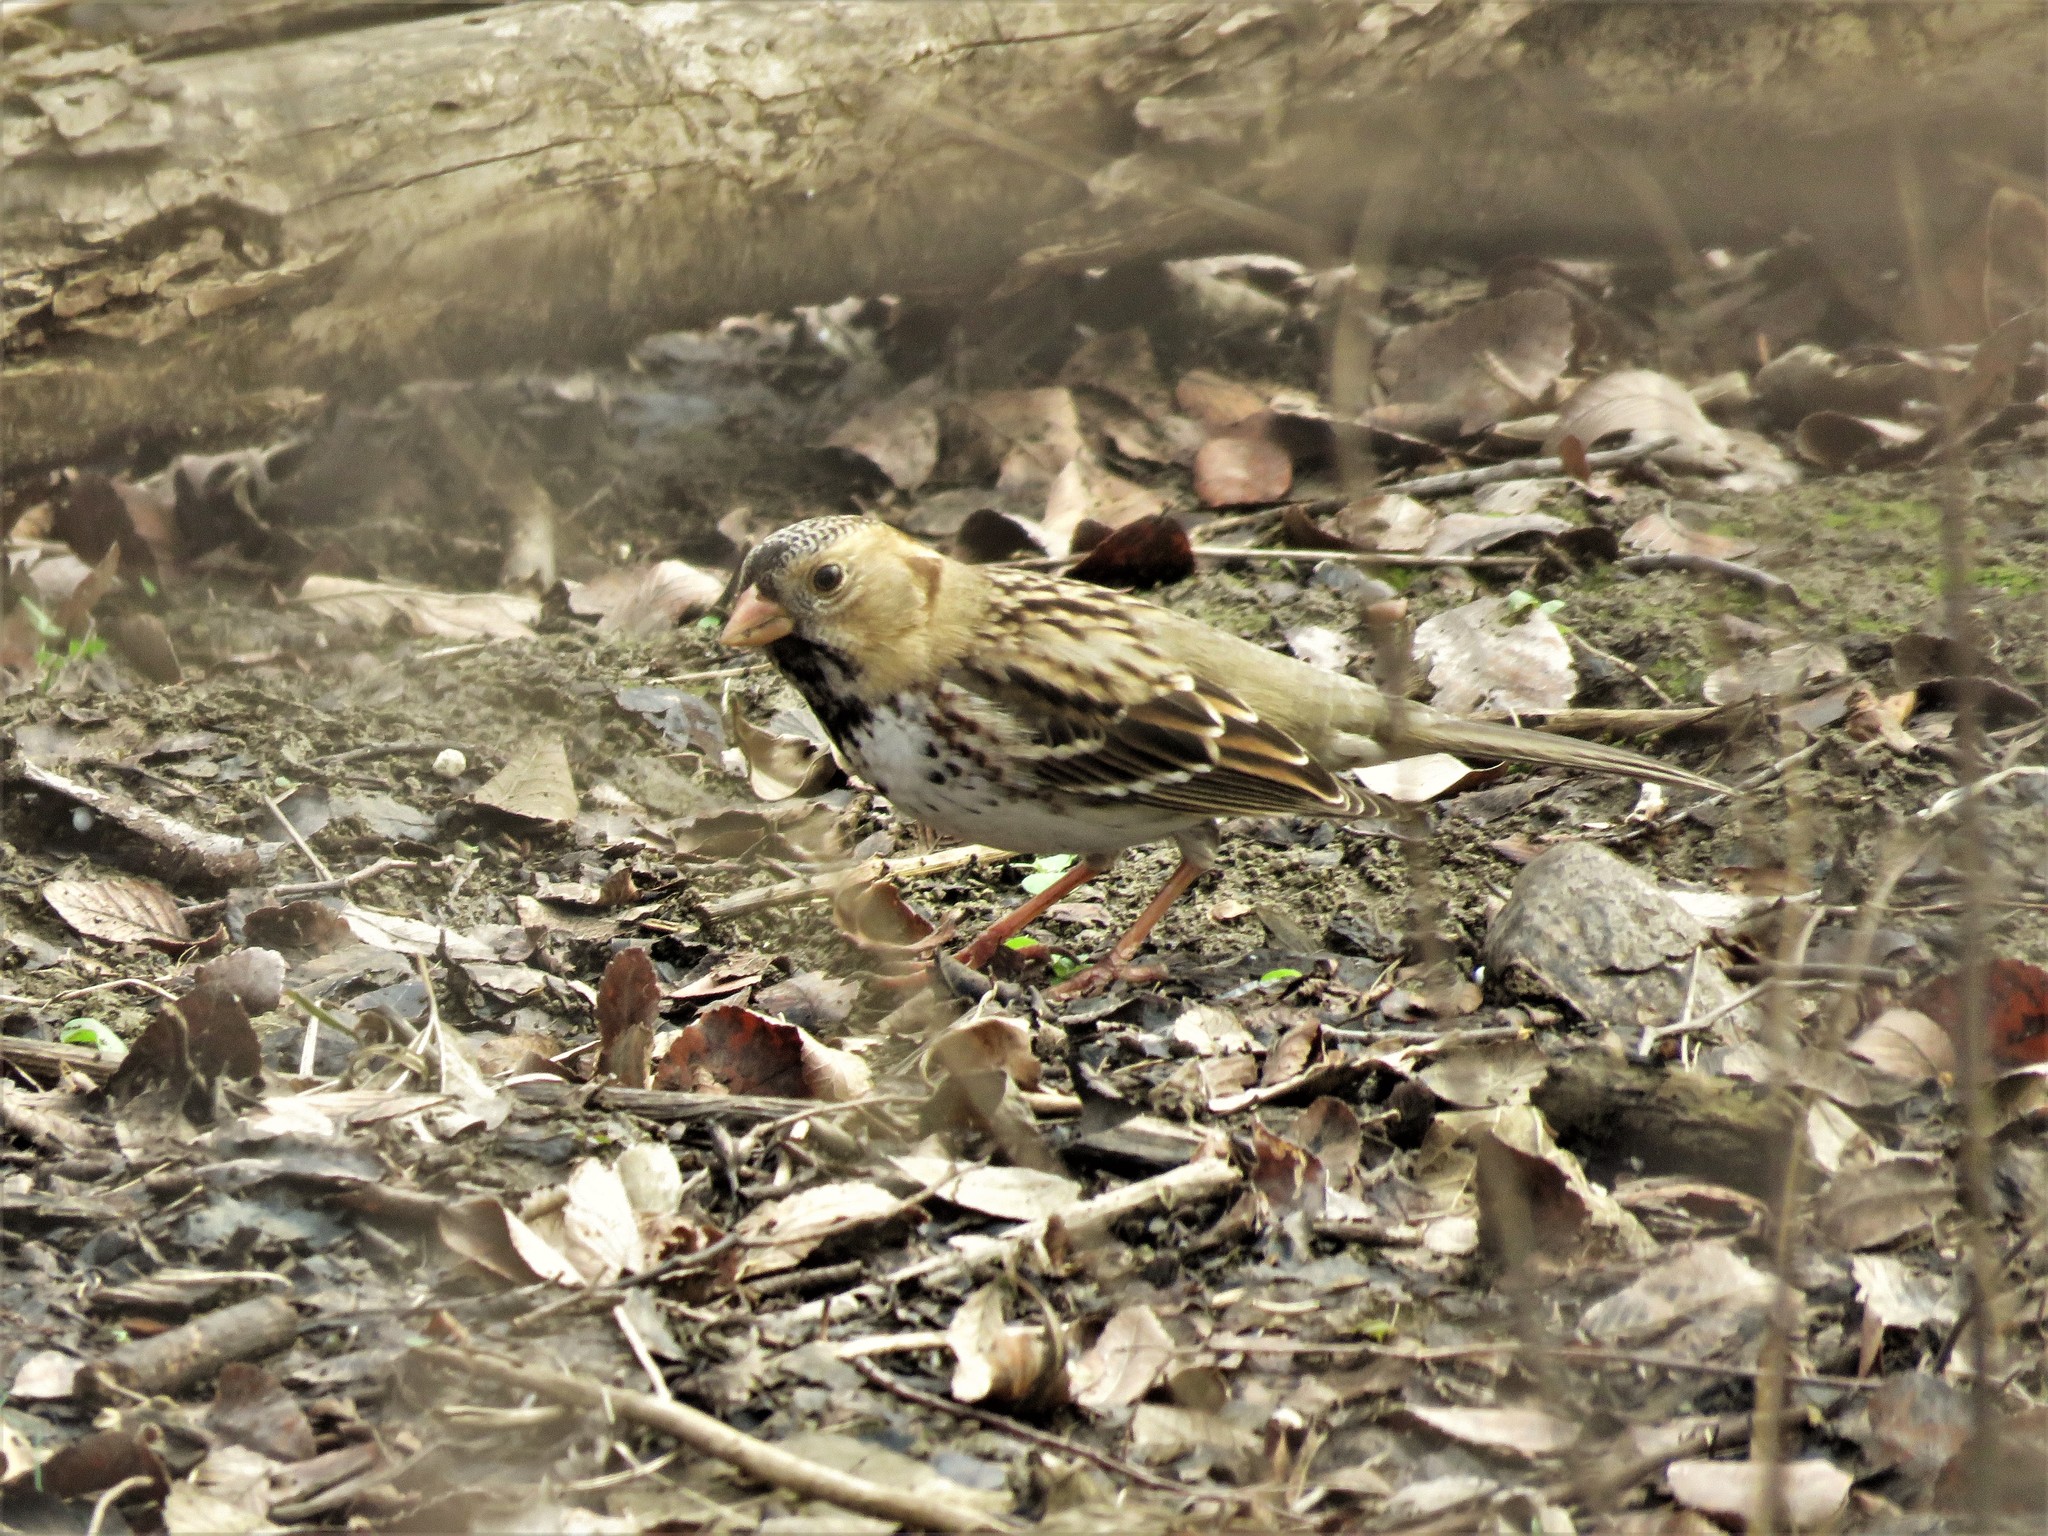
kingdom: Animalia
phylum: Chordata
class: Aves
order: Passeriformes
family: Passerellidae
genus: Zonotrichia
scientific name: Zonotrichia querula
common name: Harris's sparrow
